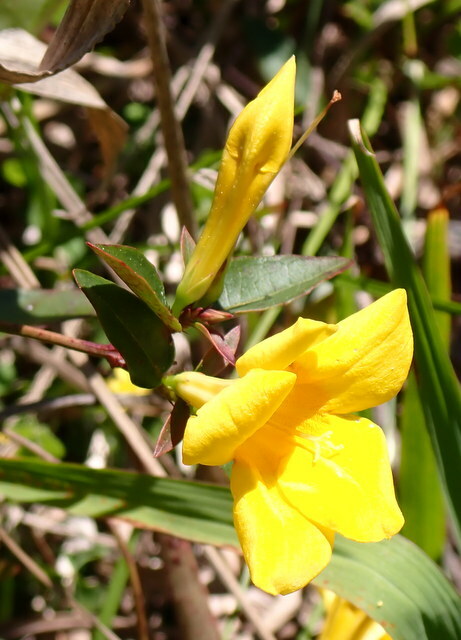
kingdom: Plantae
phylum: Tracheophyta
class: Magnoliopsida
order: Gentianales
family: Gelsemiaceae
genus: Gelsemium
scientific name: Gelsemium rankinii
